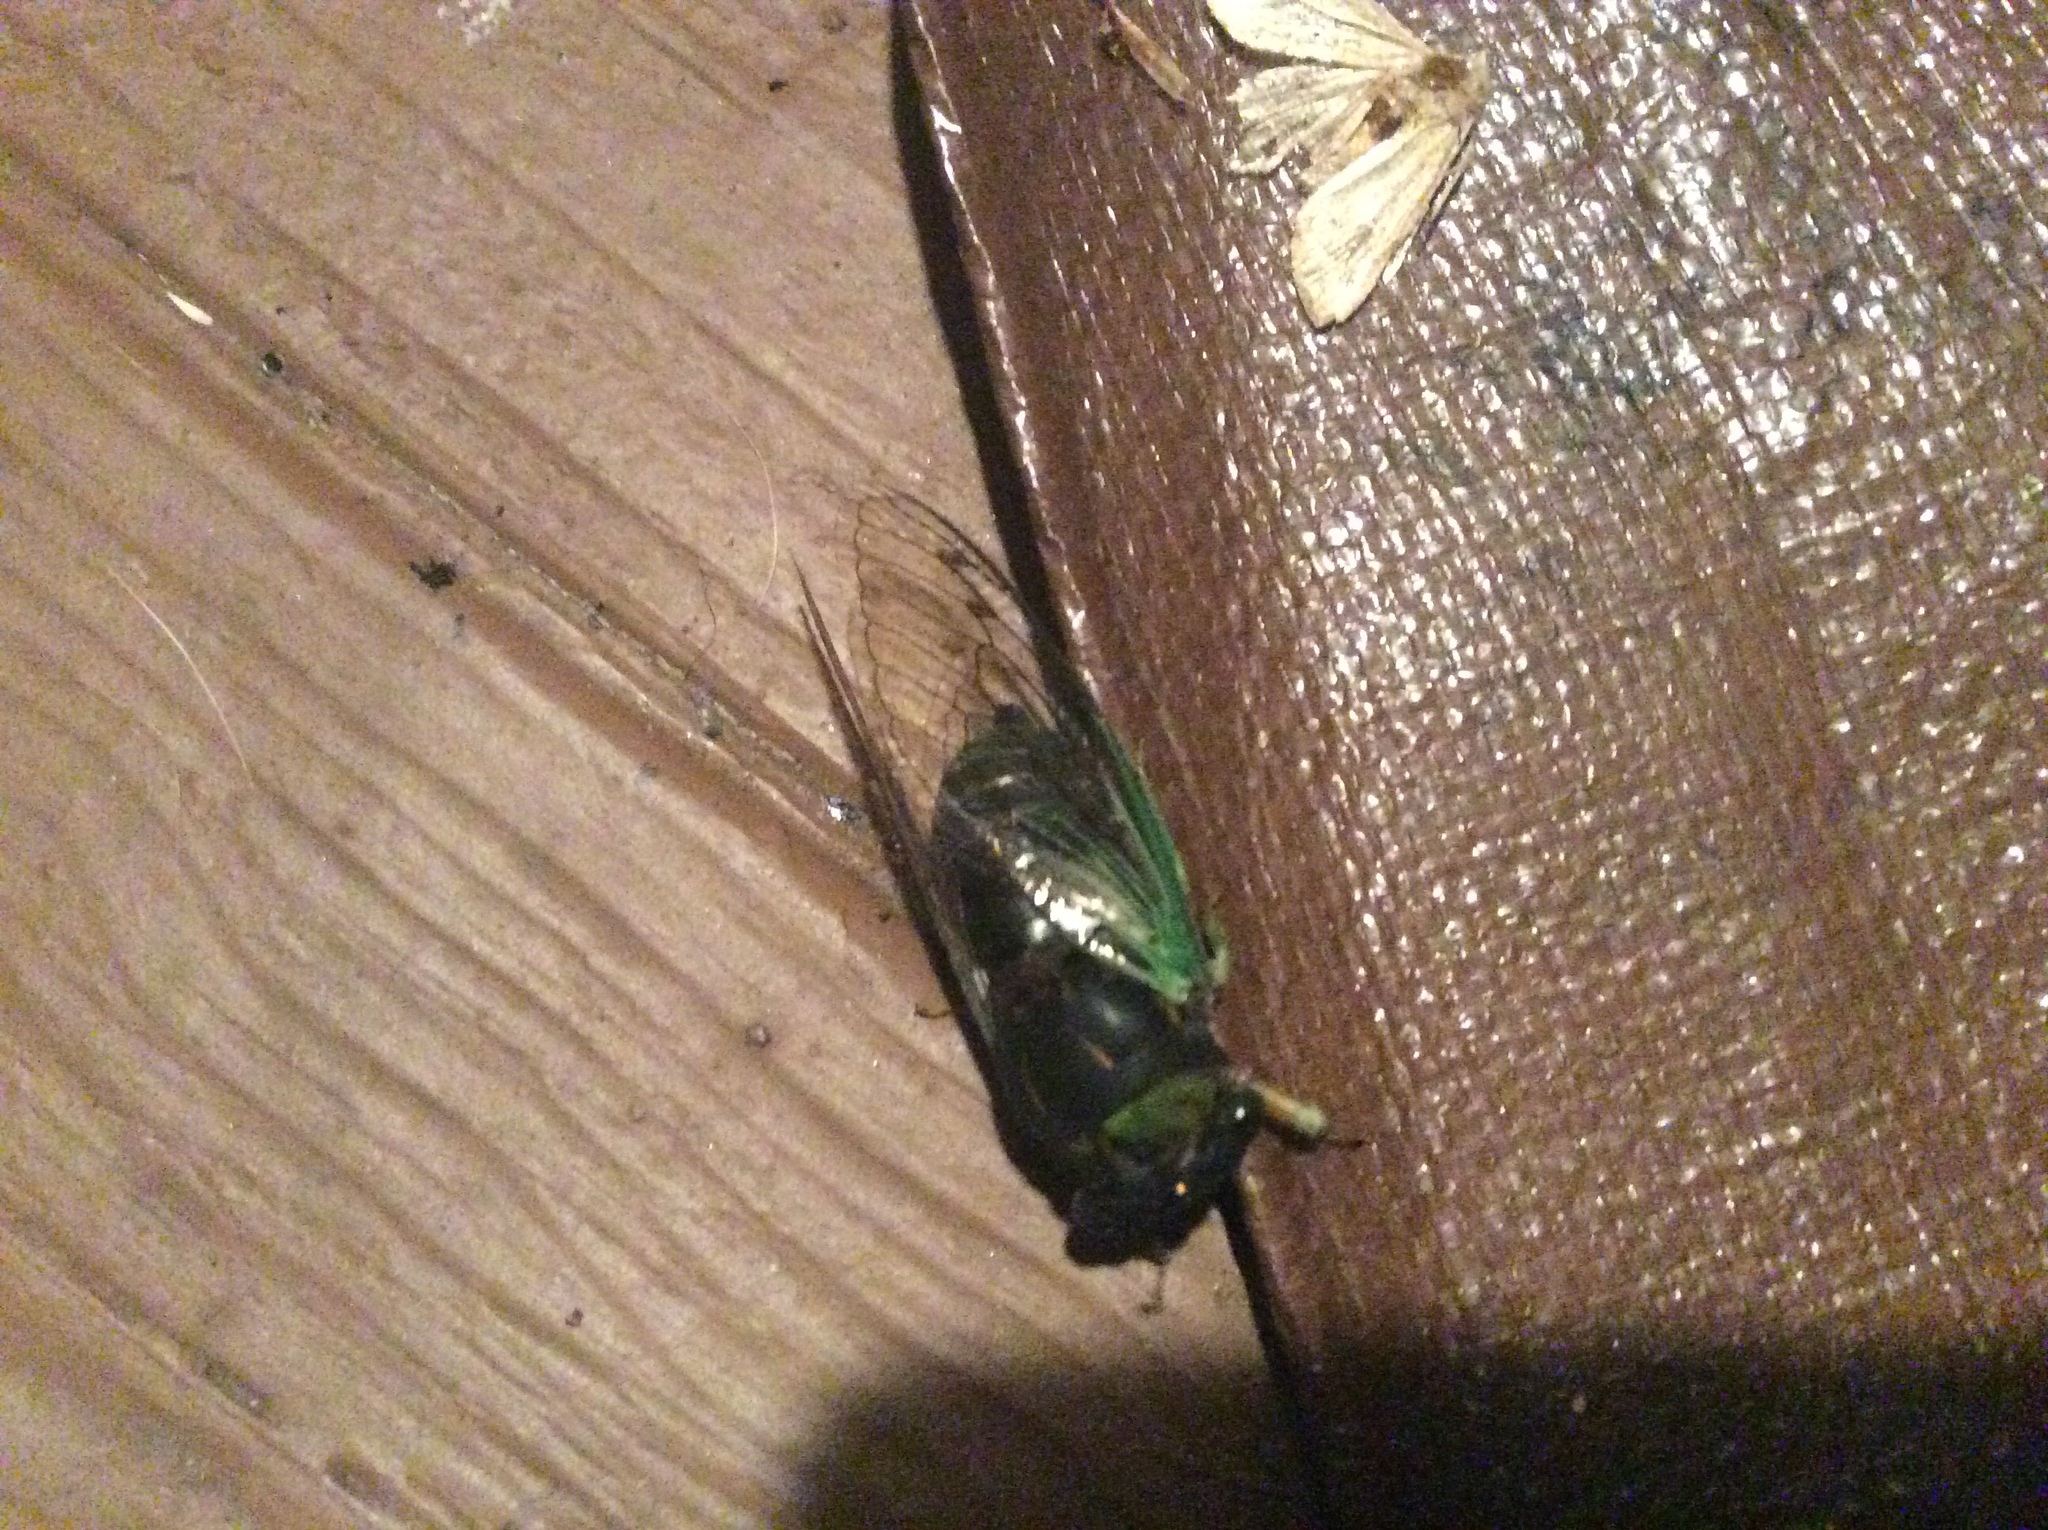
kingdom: Animalia
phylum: Arthropoda
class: Insecta
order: Hemiptera
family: Cicadidae
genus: Neotibicen
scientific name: Neotibicen tibicen
